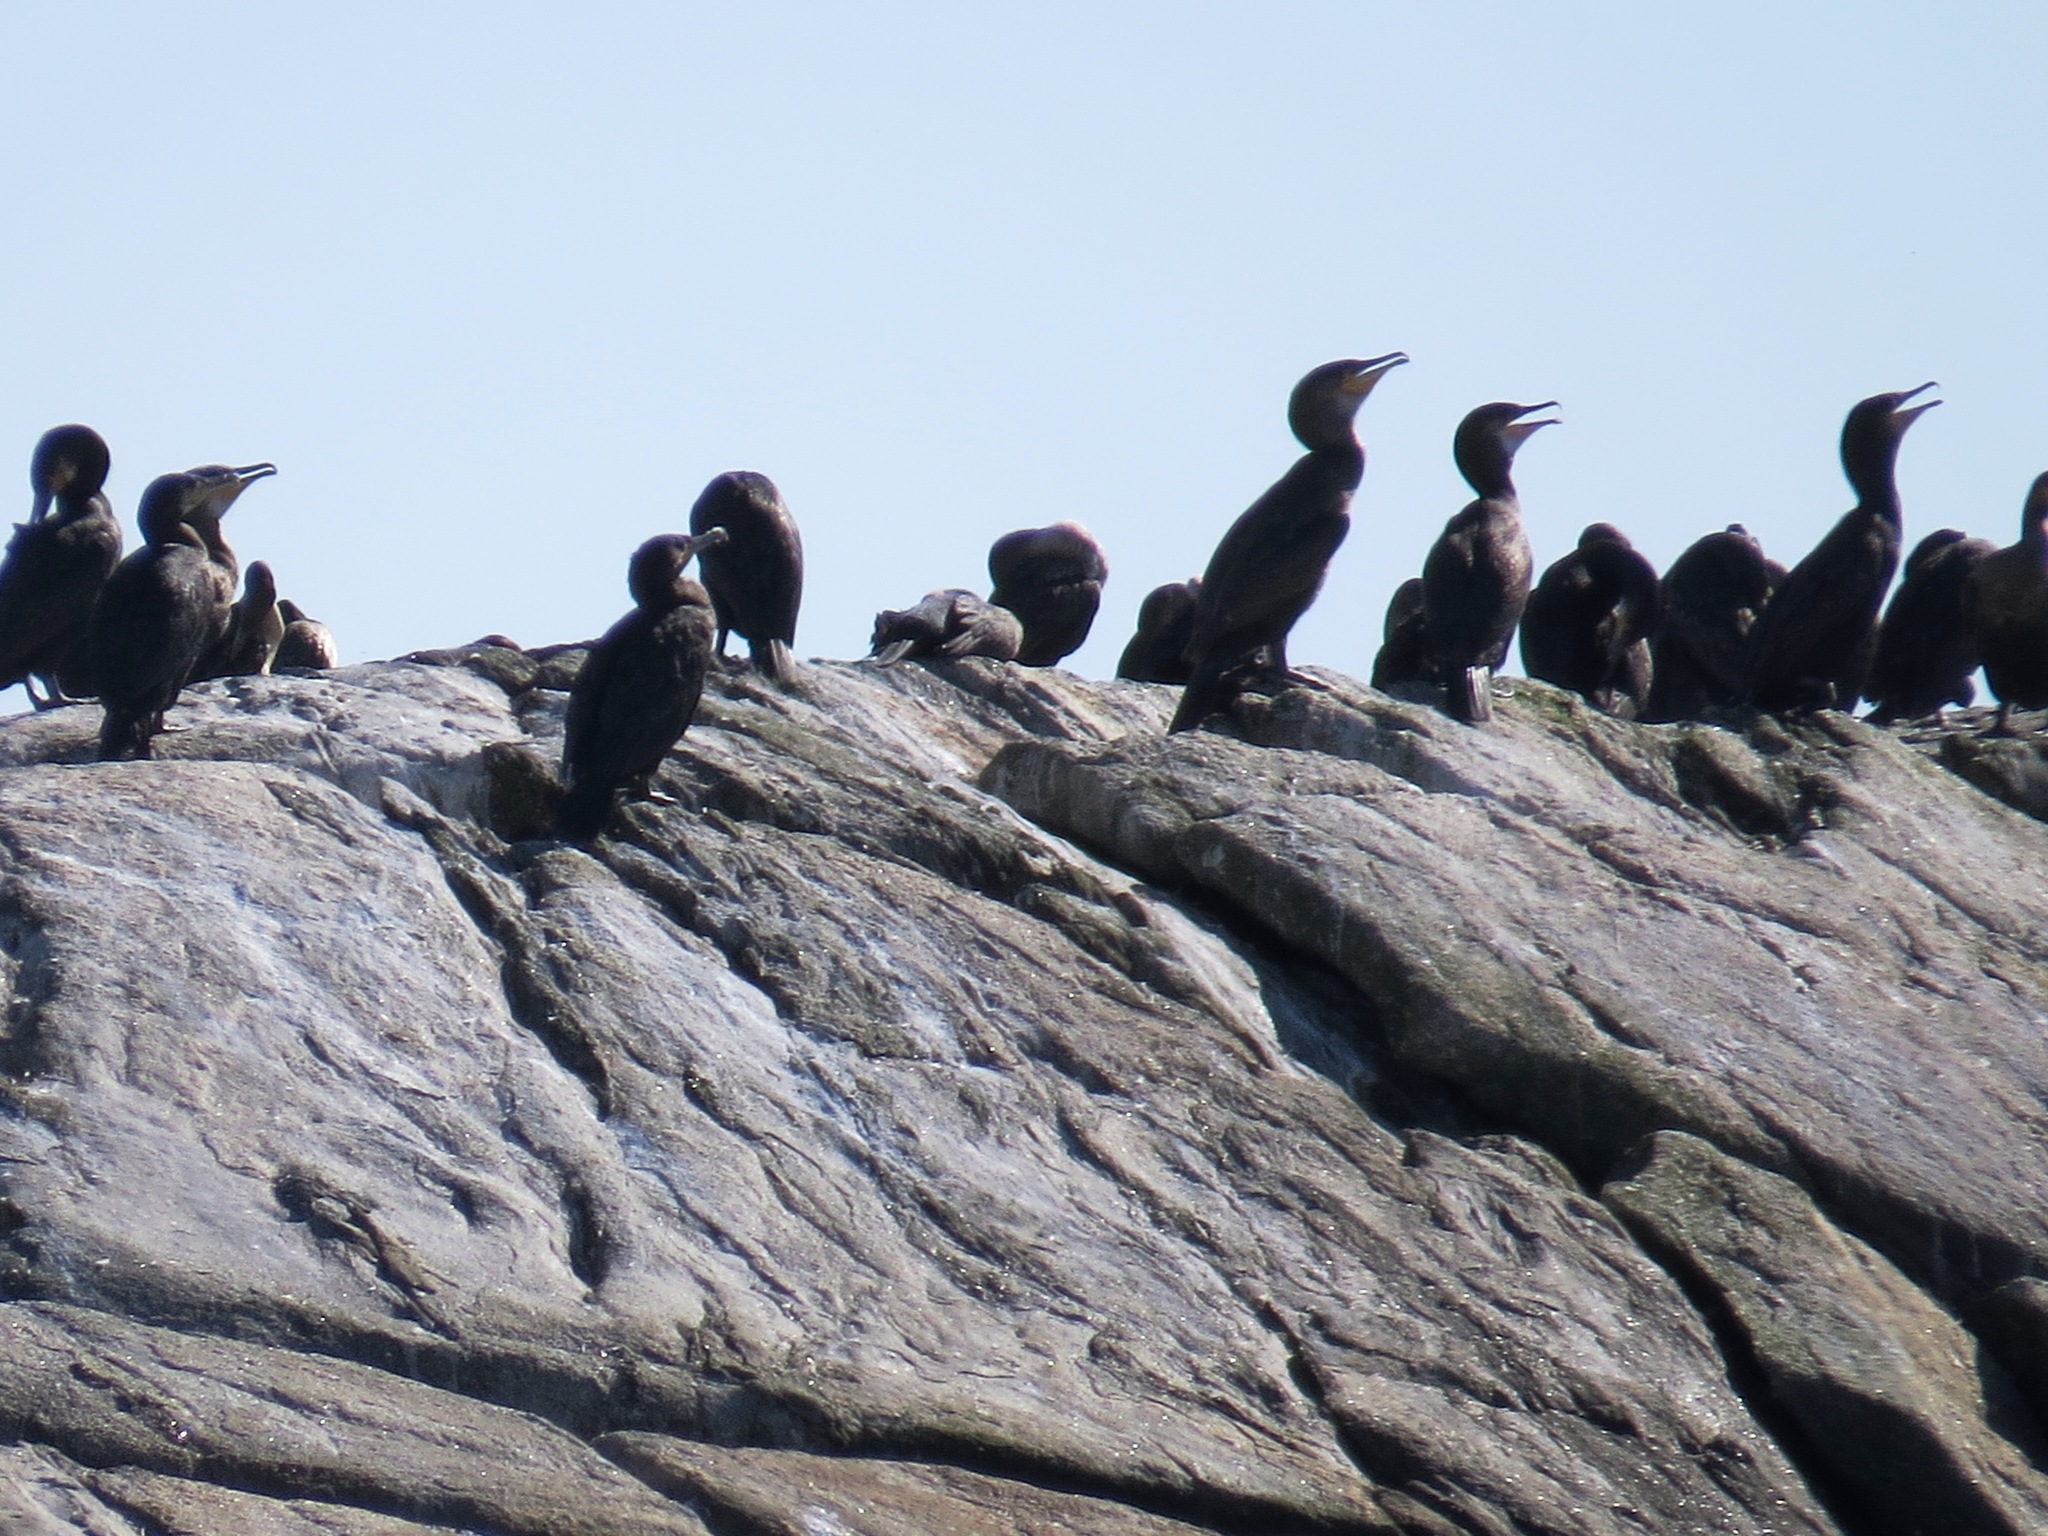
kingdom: Animalia
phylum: Chordata
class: Aves
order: Suliformes
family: Phalacrocoracidae
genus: Phalacrocorax
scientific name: Phalacrocorax carbo
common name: Great cormorant
